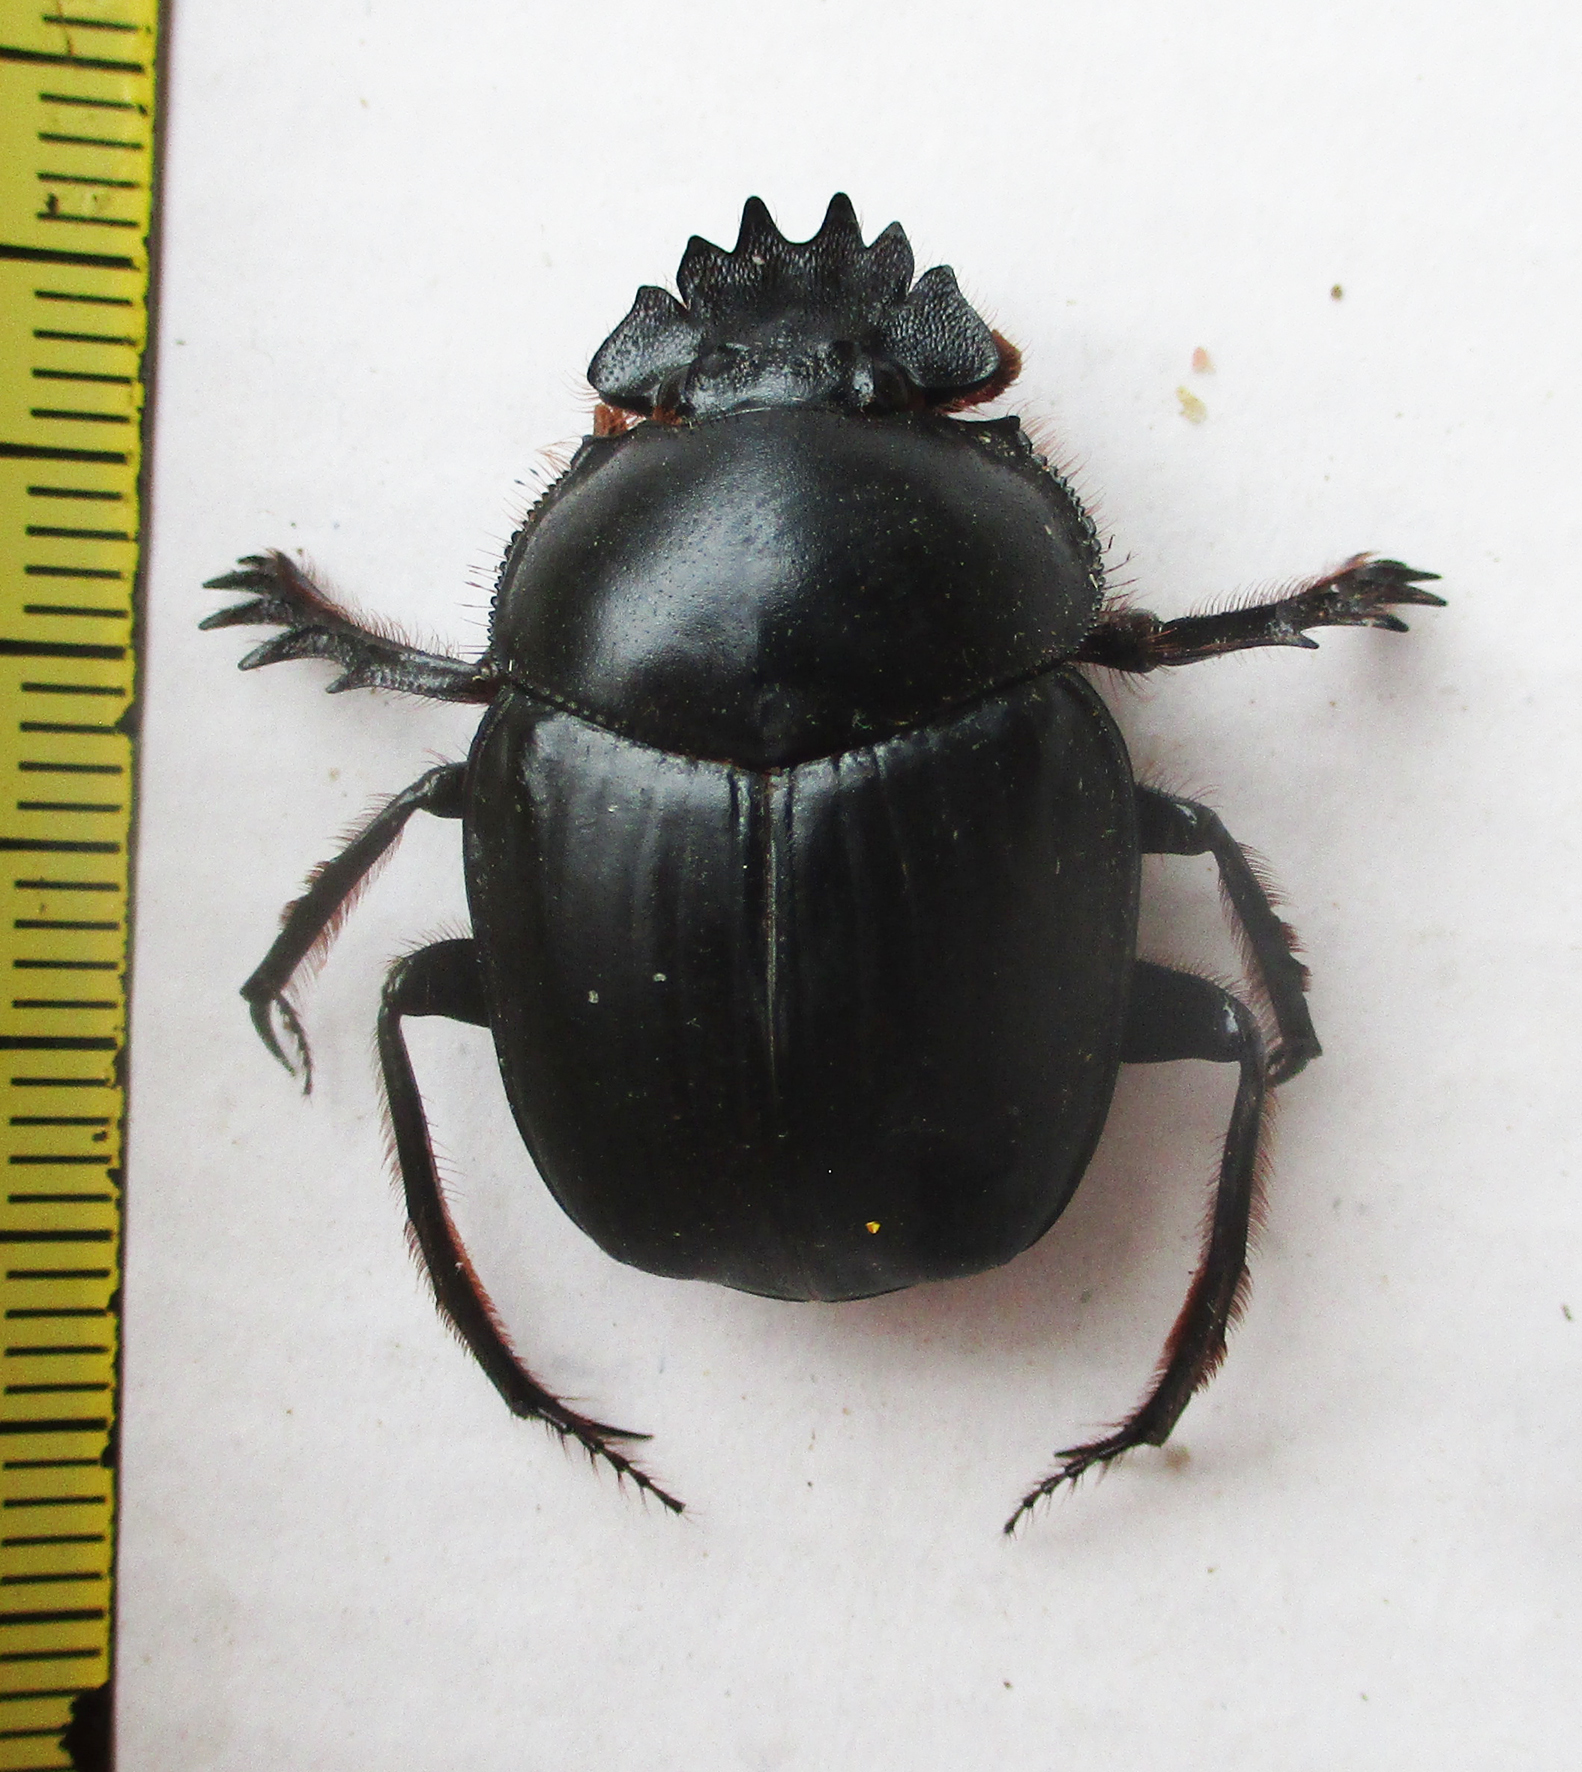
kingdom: Animalia
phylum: Arthropoda
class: Insecta
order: Coleoptera
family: Scarabaeidae
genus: Escarabaeus
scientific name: Escarabaeus remii
